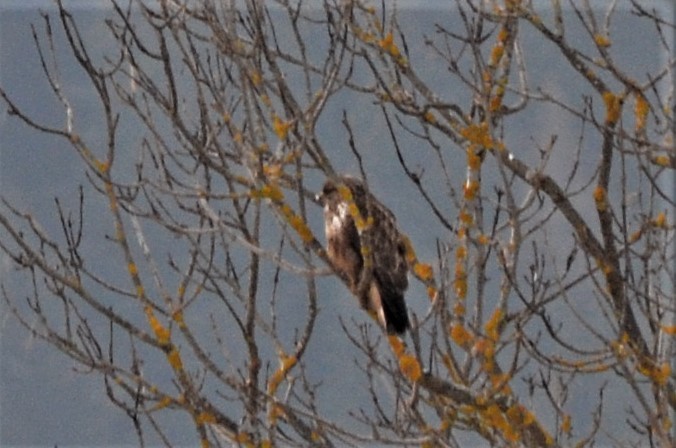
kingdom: Animalia
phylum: Chordata
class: Aves
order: Accipitriformes
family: Accipitridae
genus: Buteo
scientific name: Buteo buteo
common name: Common buzzard
